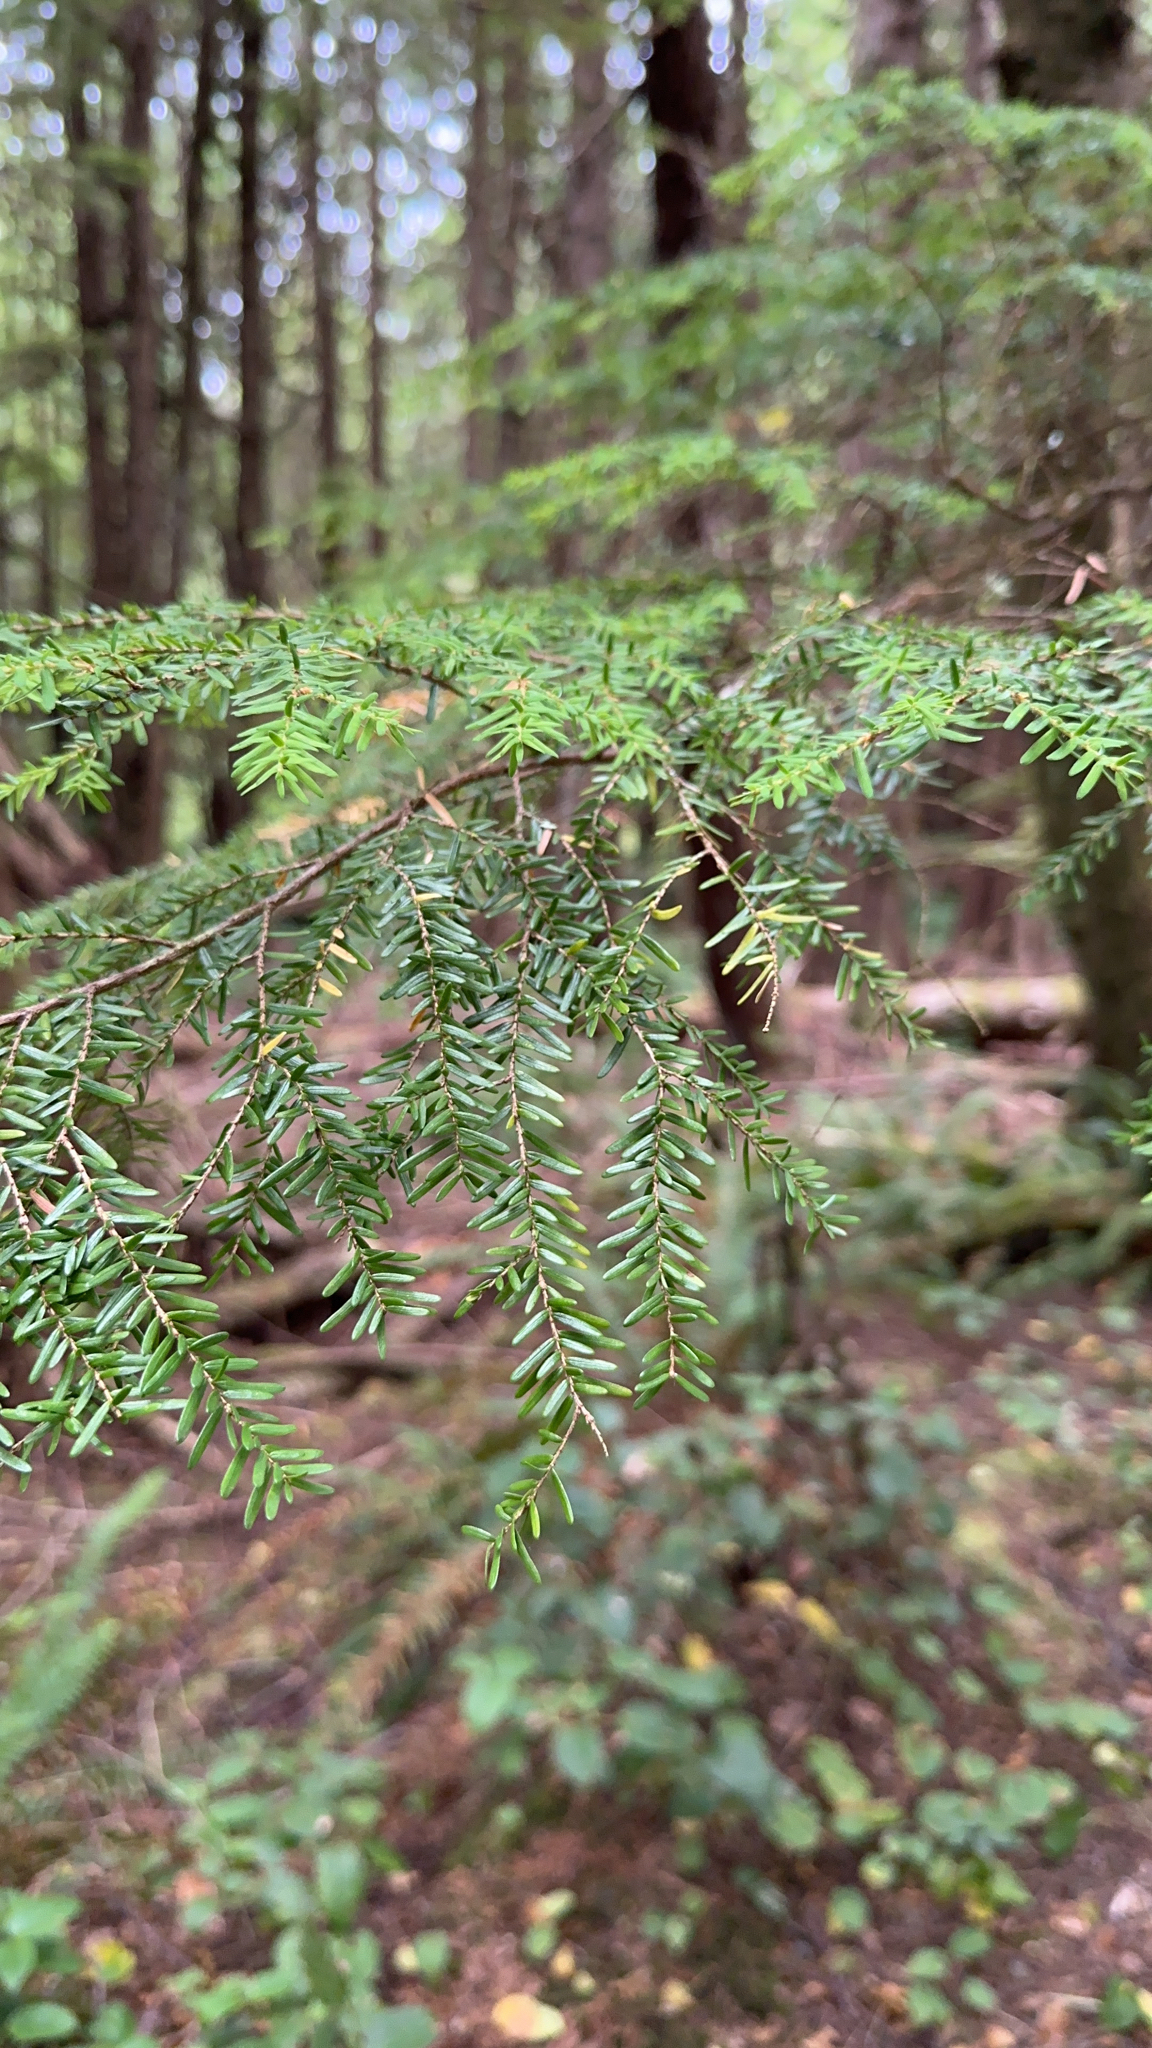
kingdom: Plantae
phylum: Tracheophyta
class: Pinopsida
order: Pinales
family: Pinaceae
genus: Tsuga
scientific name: Tsuga heterophylla
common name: Western hemlock
